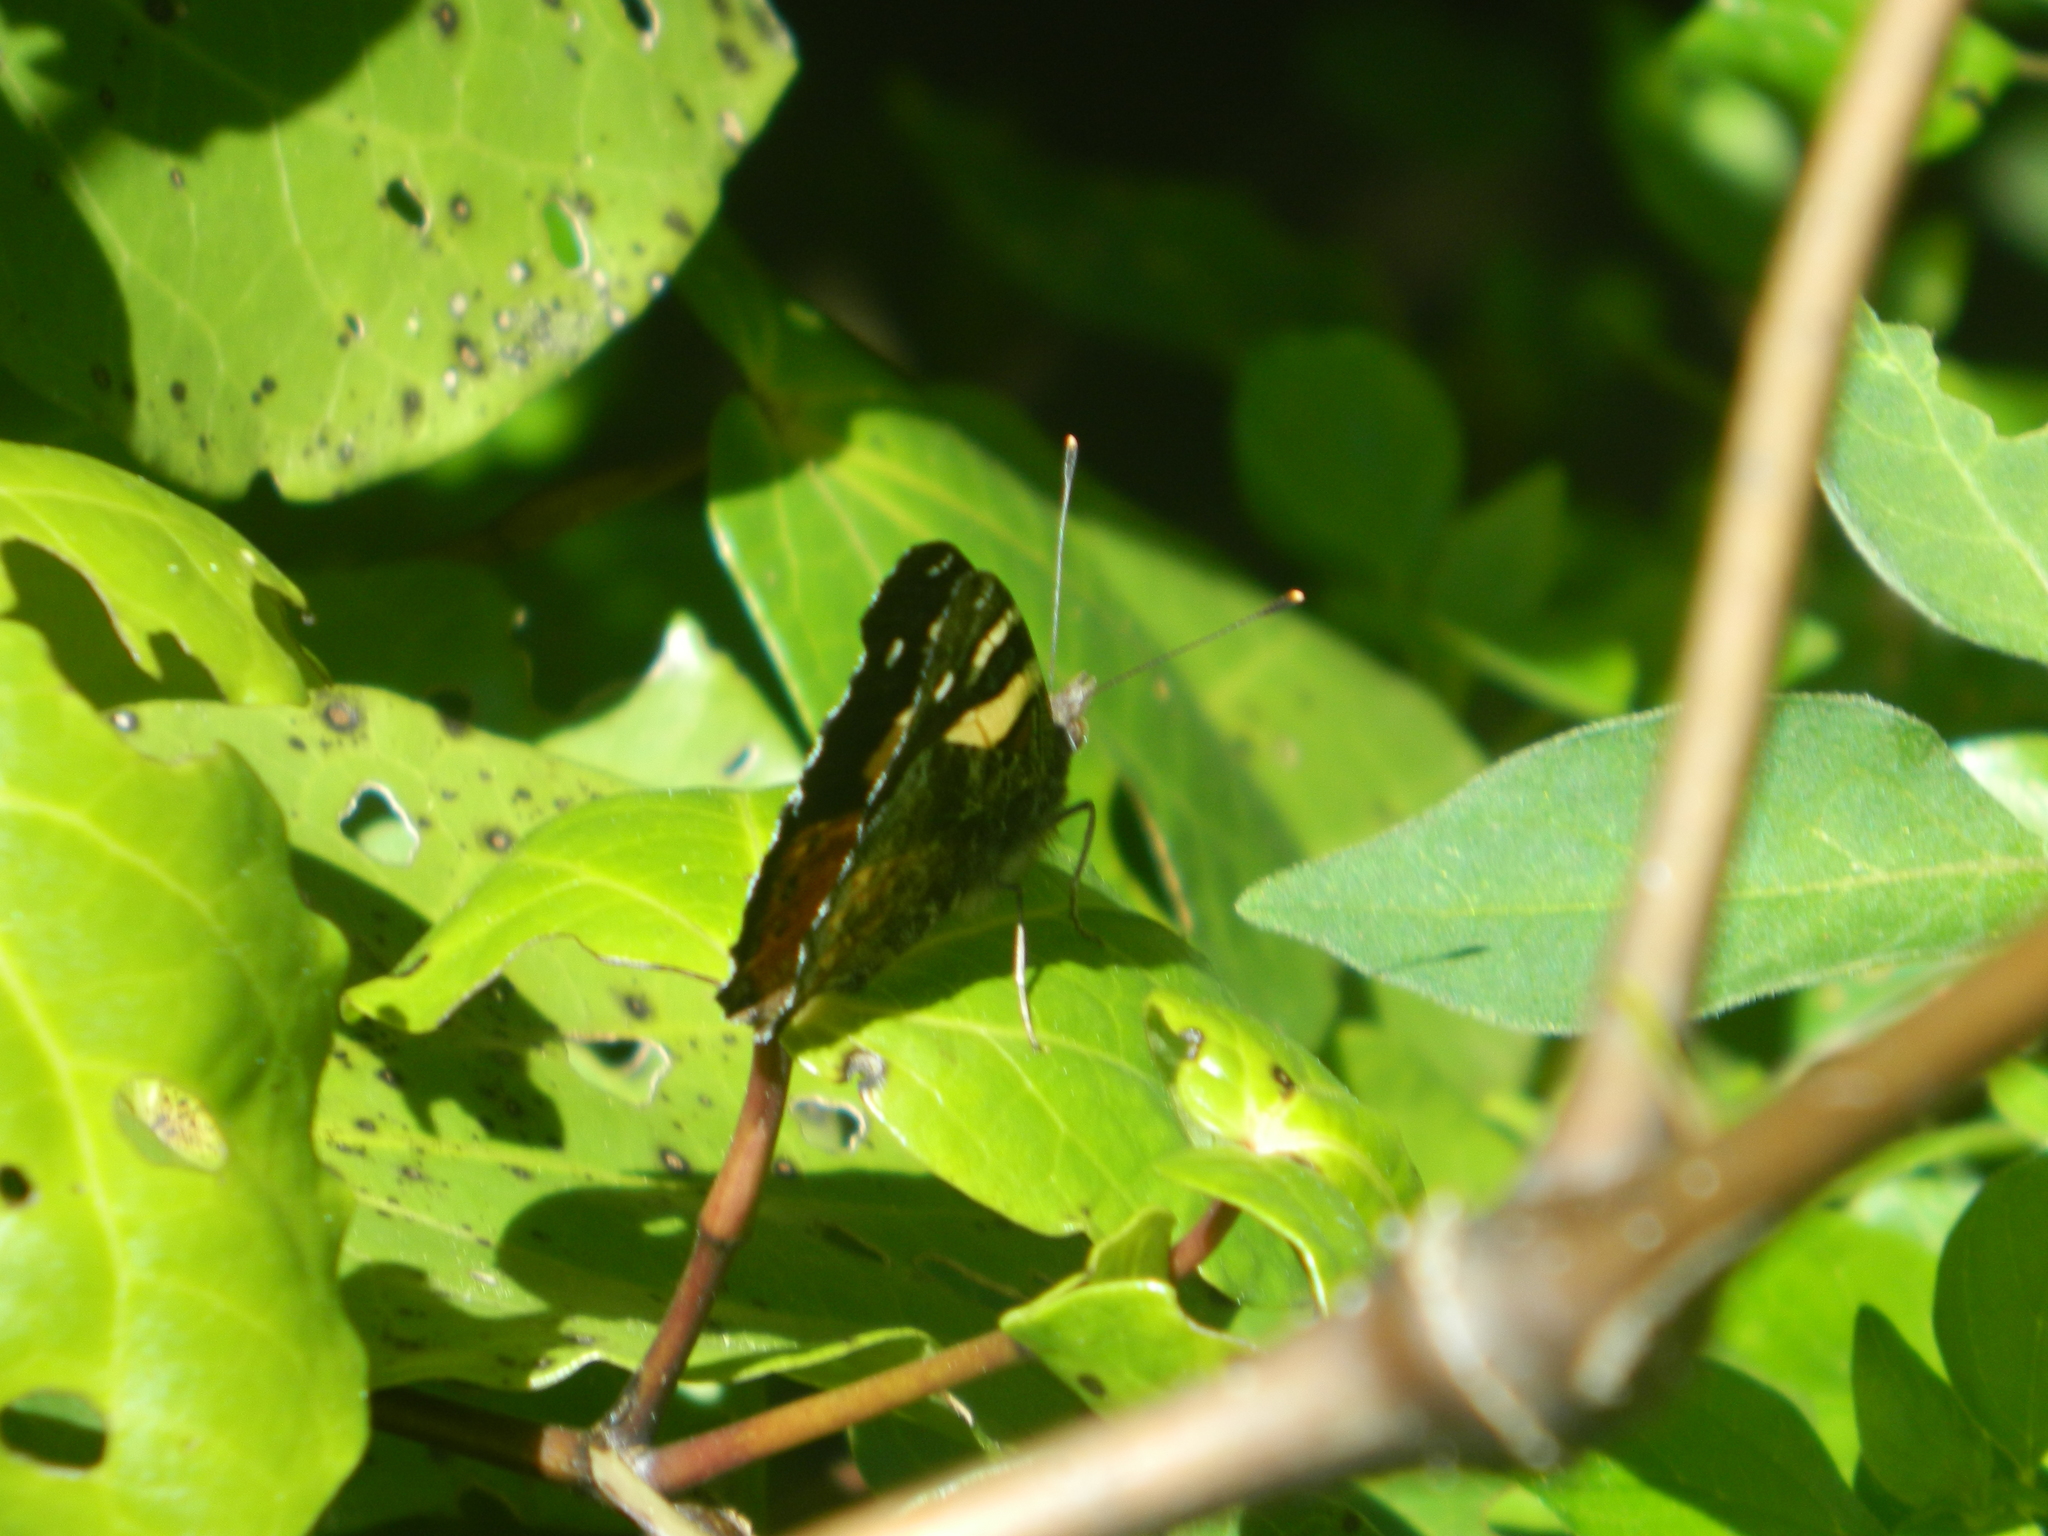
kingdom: Animalia
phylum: Arthropoda
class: Insecta
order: Lepidoptera
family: Nymphalidae
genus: Vanessa
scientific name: Vanessa itea
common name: Yellow admiral
